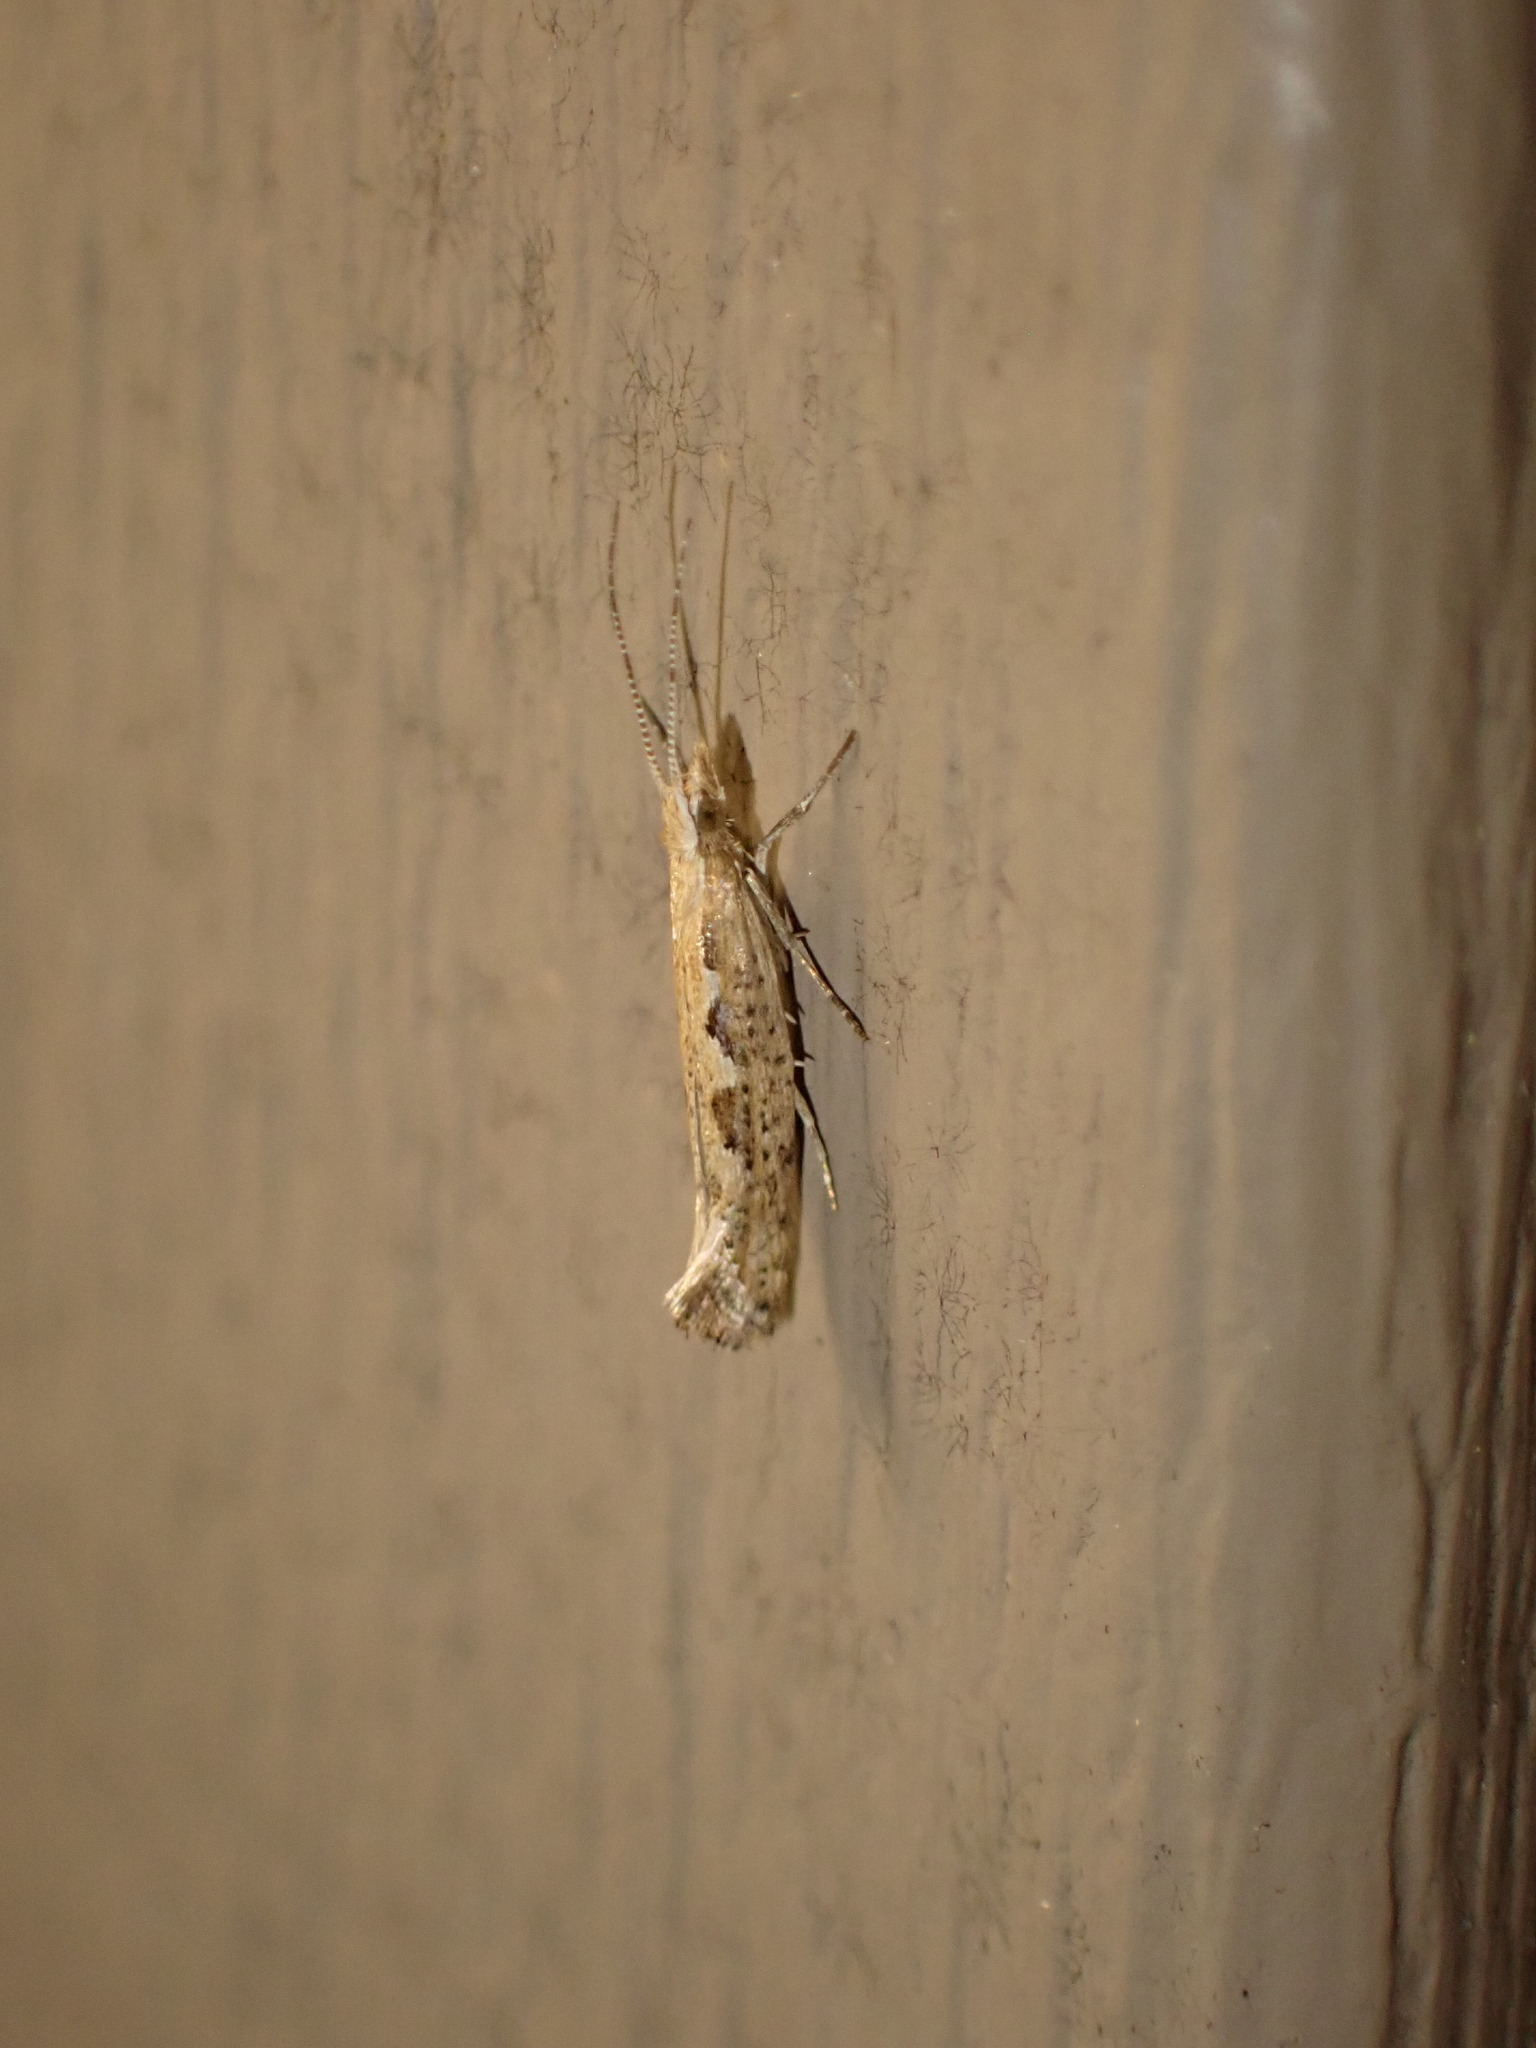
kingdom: Animalia
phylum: Arthropoda
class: Insecta
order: Lepidoptera
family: Plutellidae
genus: Plutella
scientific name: Plutella xylostella
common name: Diamond-back moth
